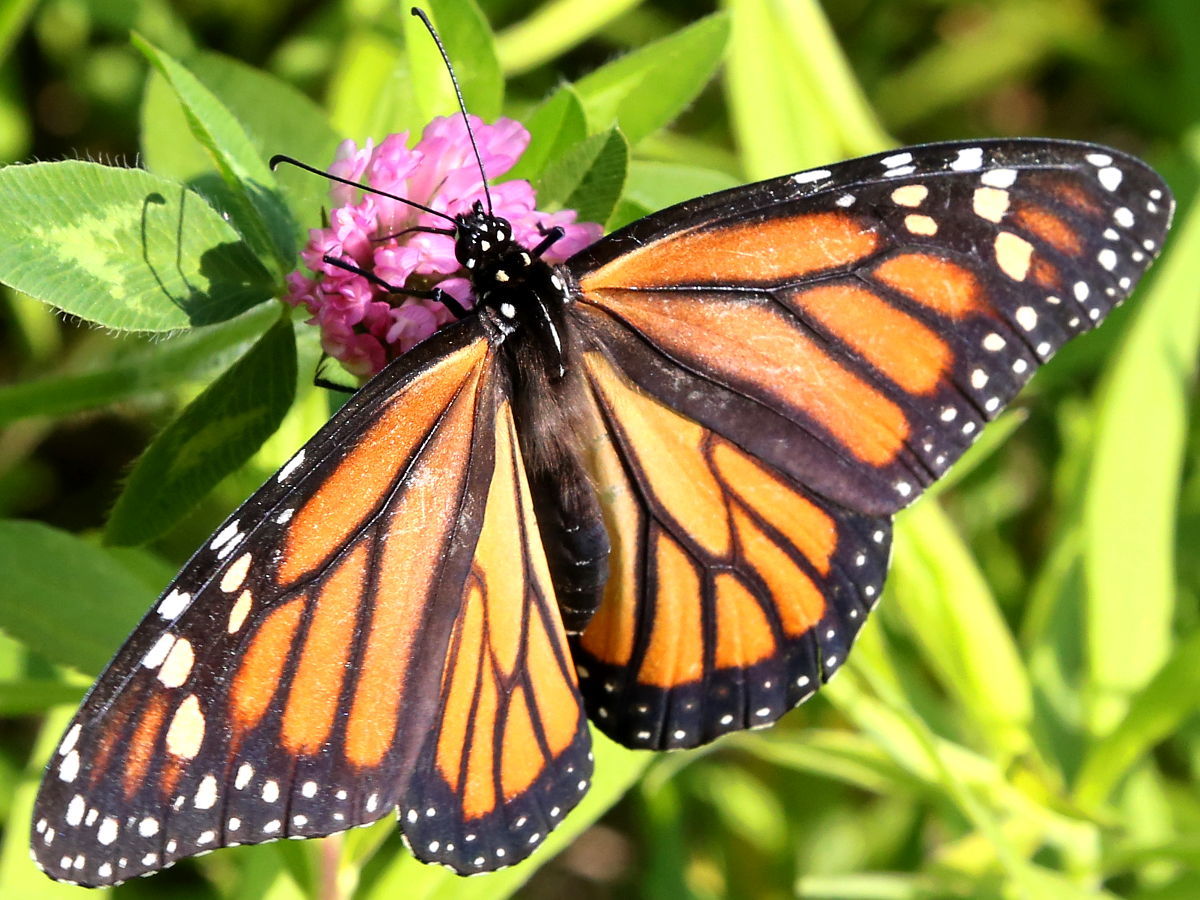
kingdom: Animalia
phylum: Arthropoda
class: Insecta
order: Lepidoptera
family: Nymphalidae
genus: Danaus
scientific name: Danaus plexippus
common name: Monarch
